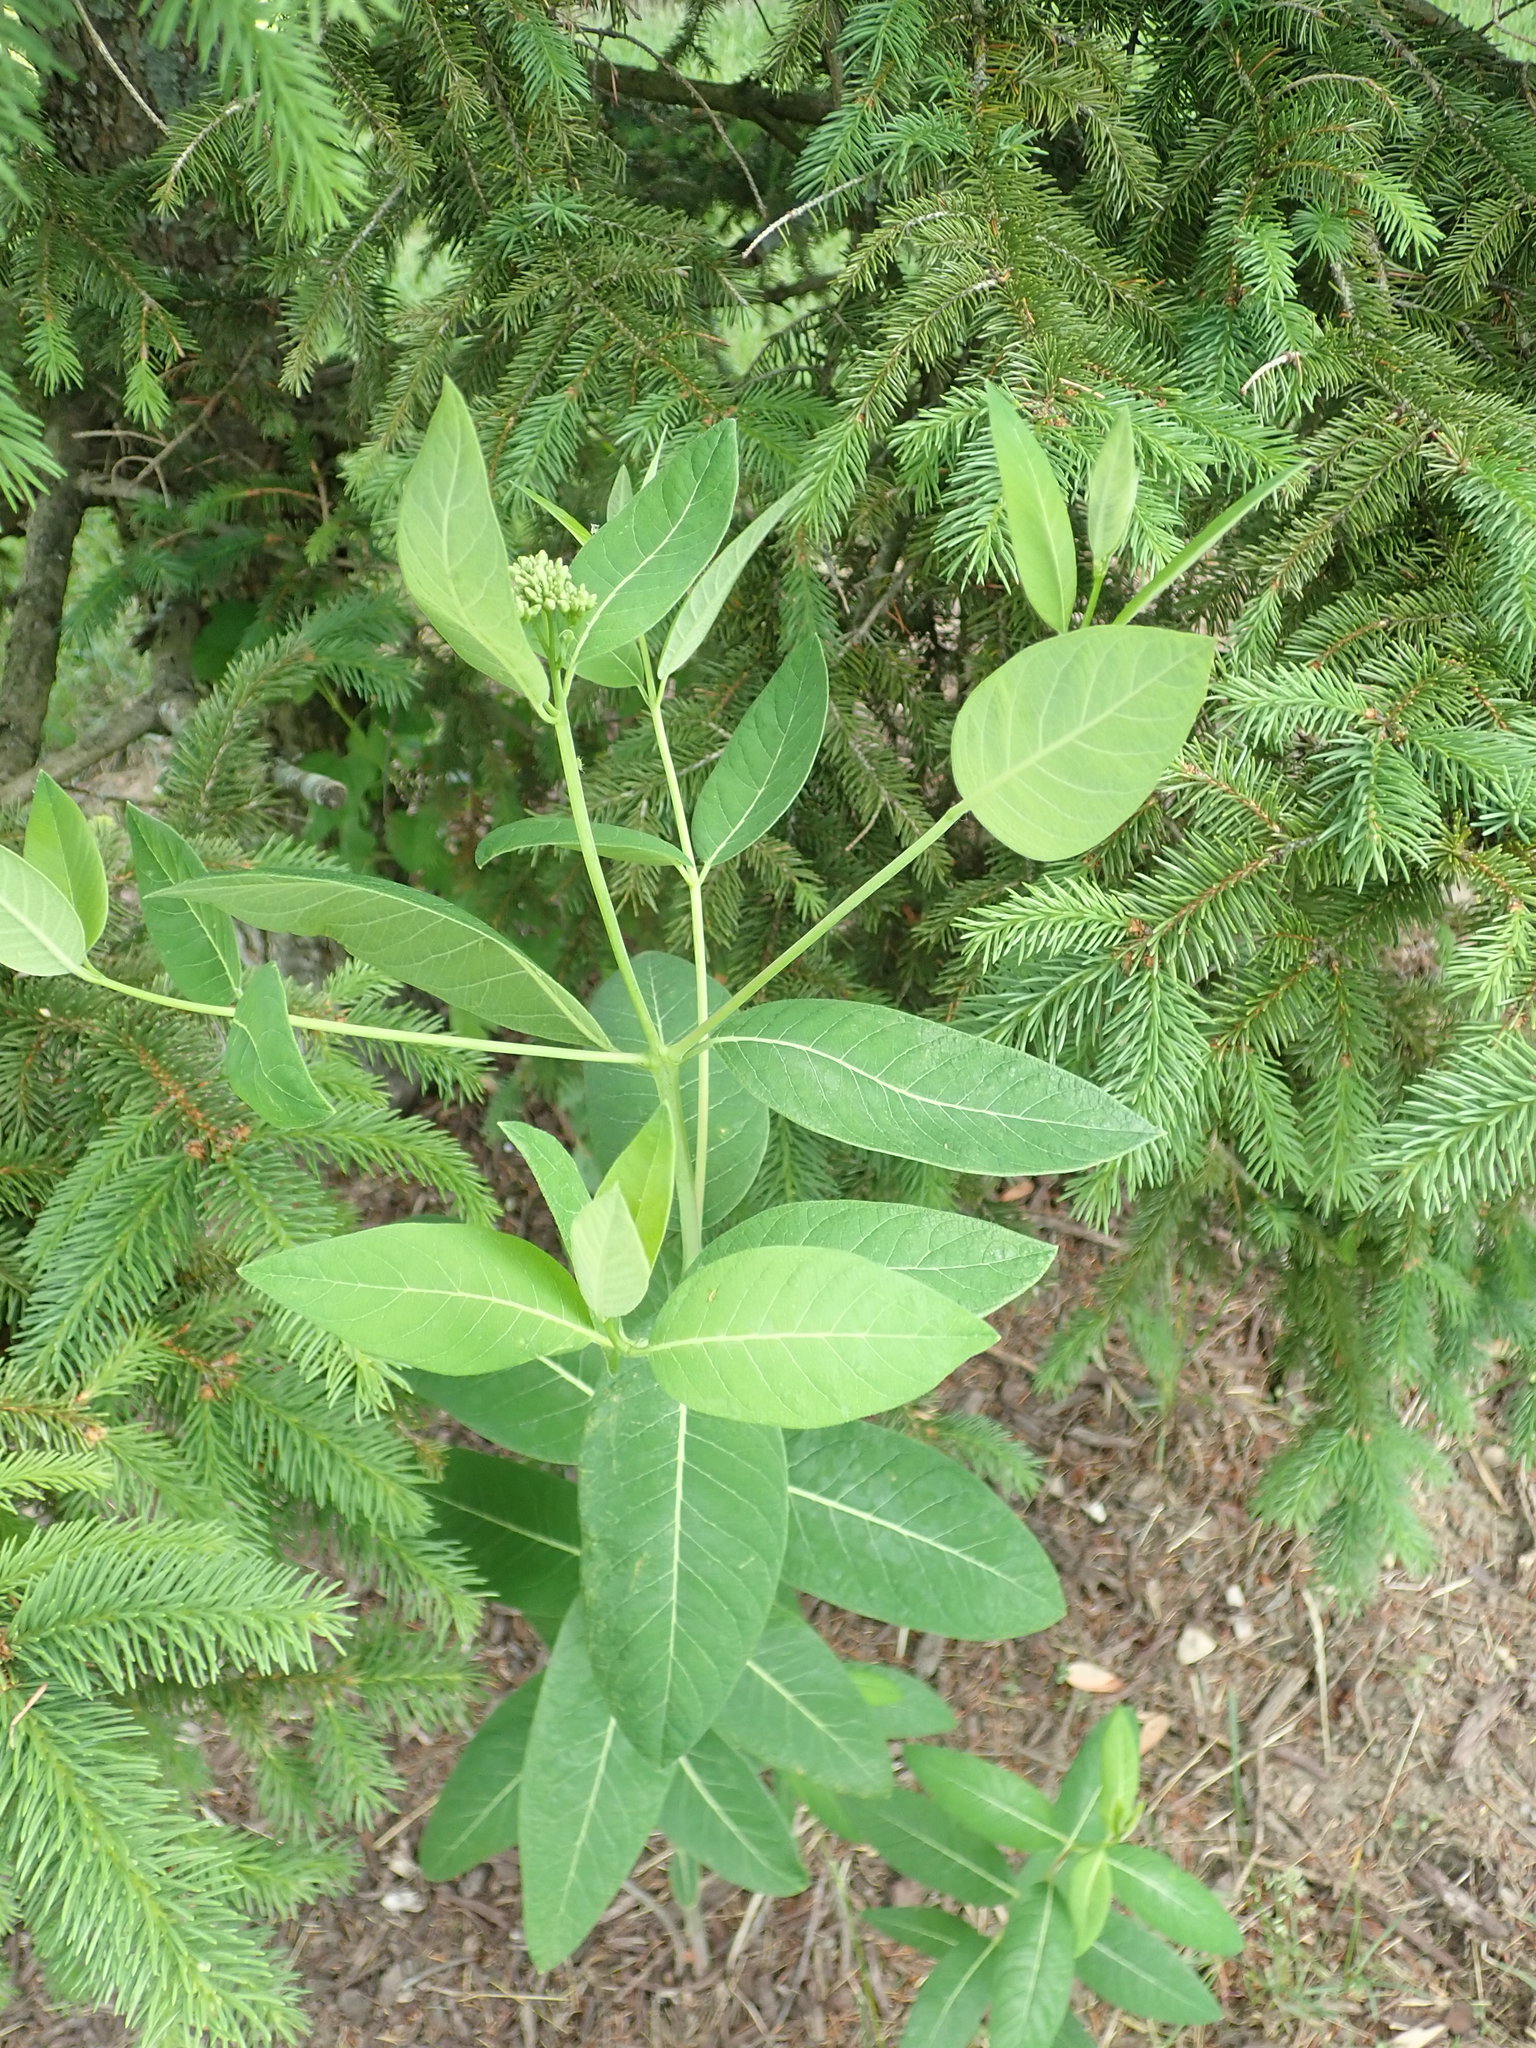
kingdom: Plantae
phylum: Tracheophyta
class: Magnoliopsida
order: Gentianales
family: Apocynaceae
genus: Apocynum
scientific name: Apocynum cannabinum
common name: Hemp dogbane
